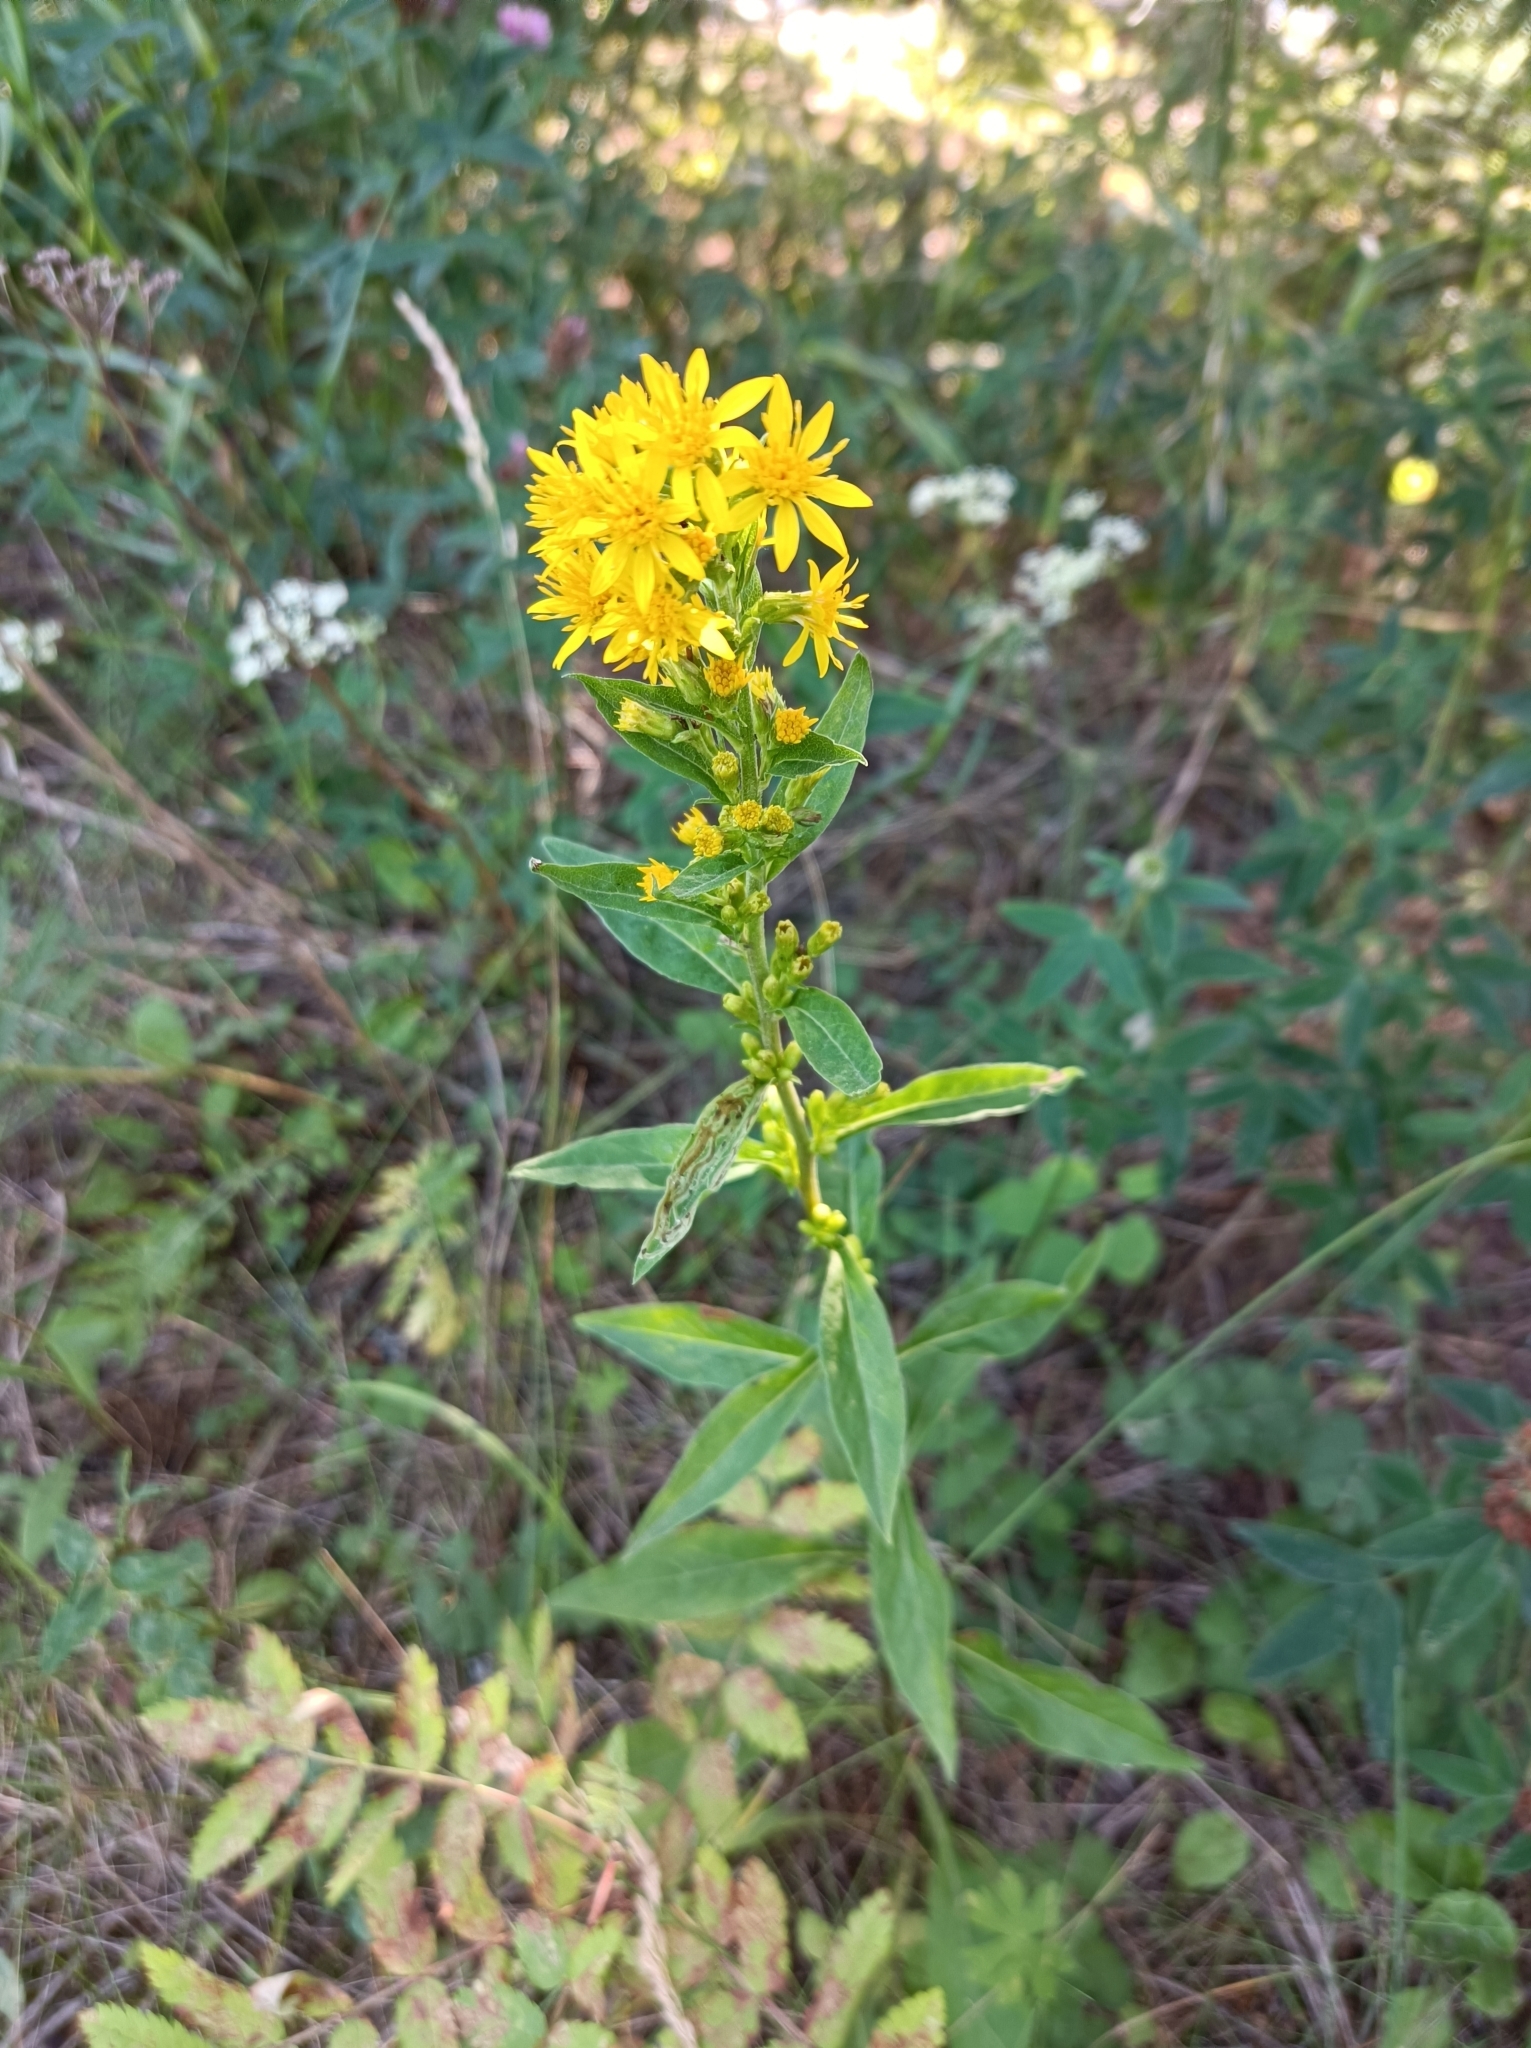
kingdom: Plantae
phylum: Tracheophyta
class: Magnoliopsida
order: Asterales
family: Asteraceae
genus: Solidago
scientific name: Solidago virgaurea
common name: Goldenrod
